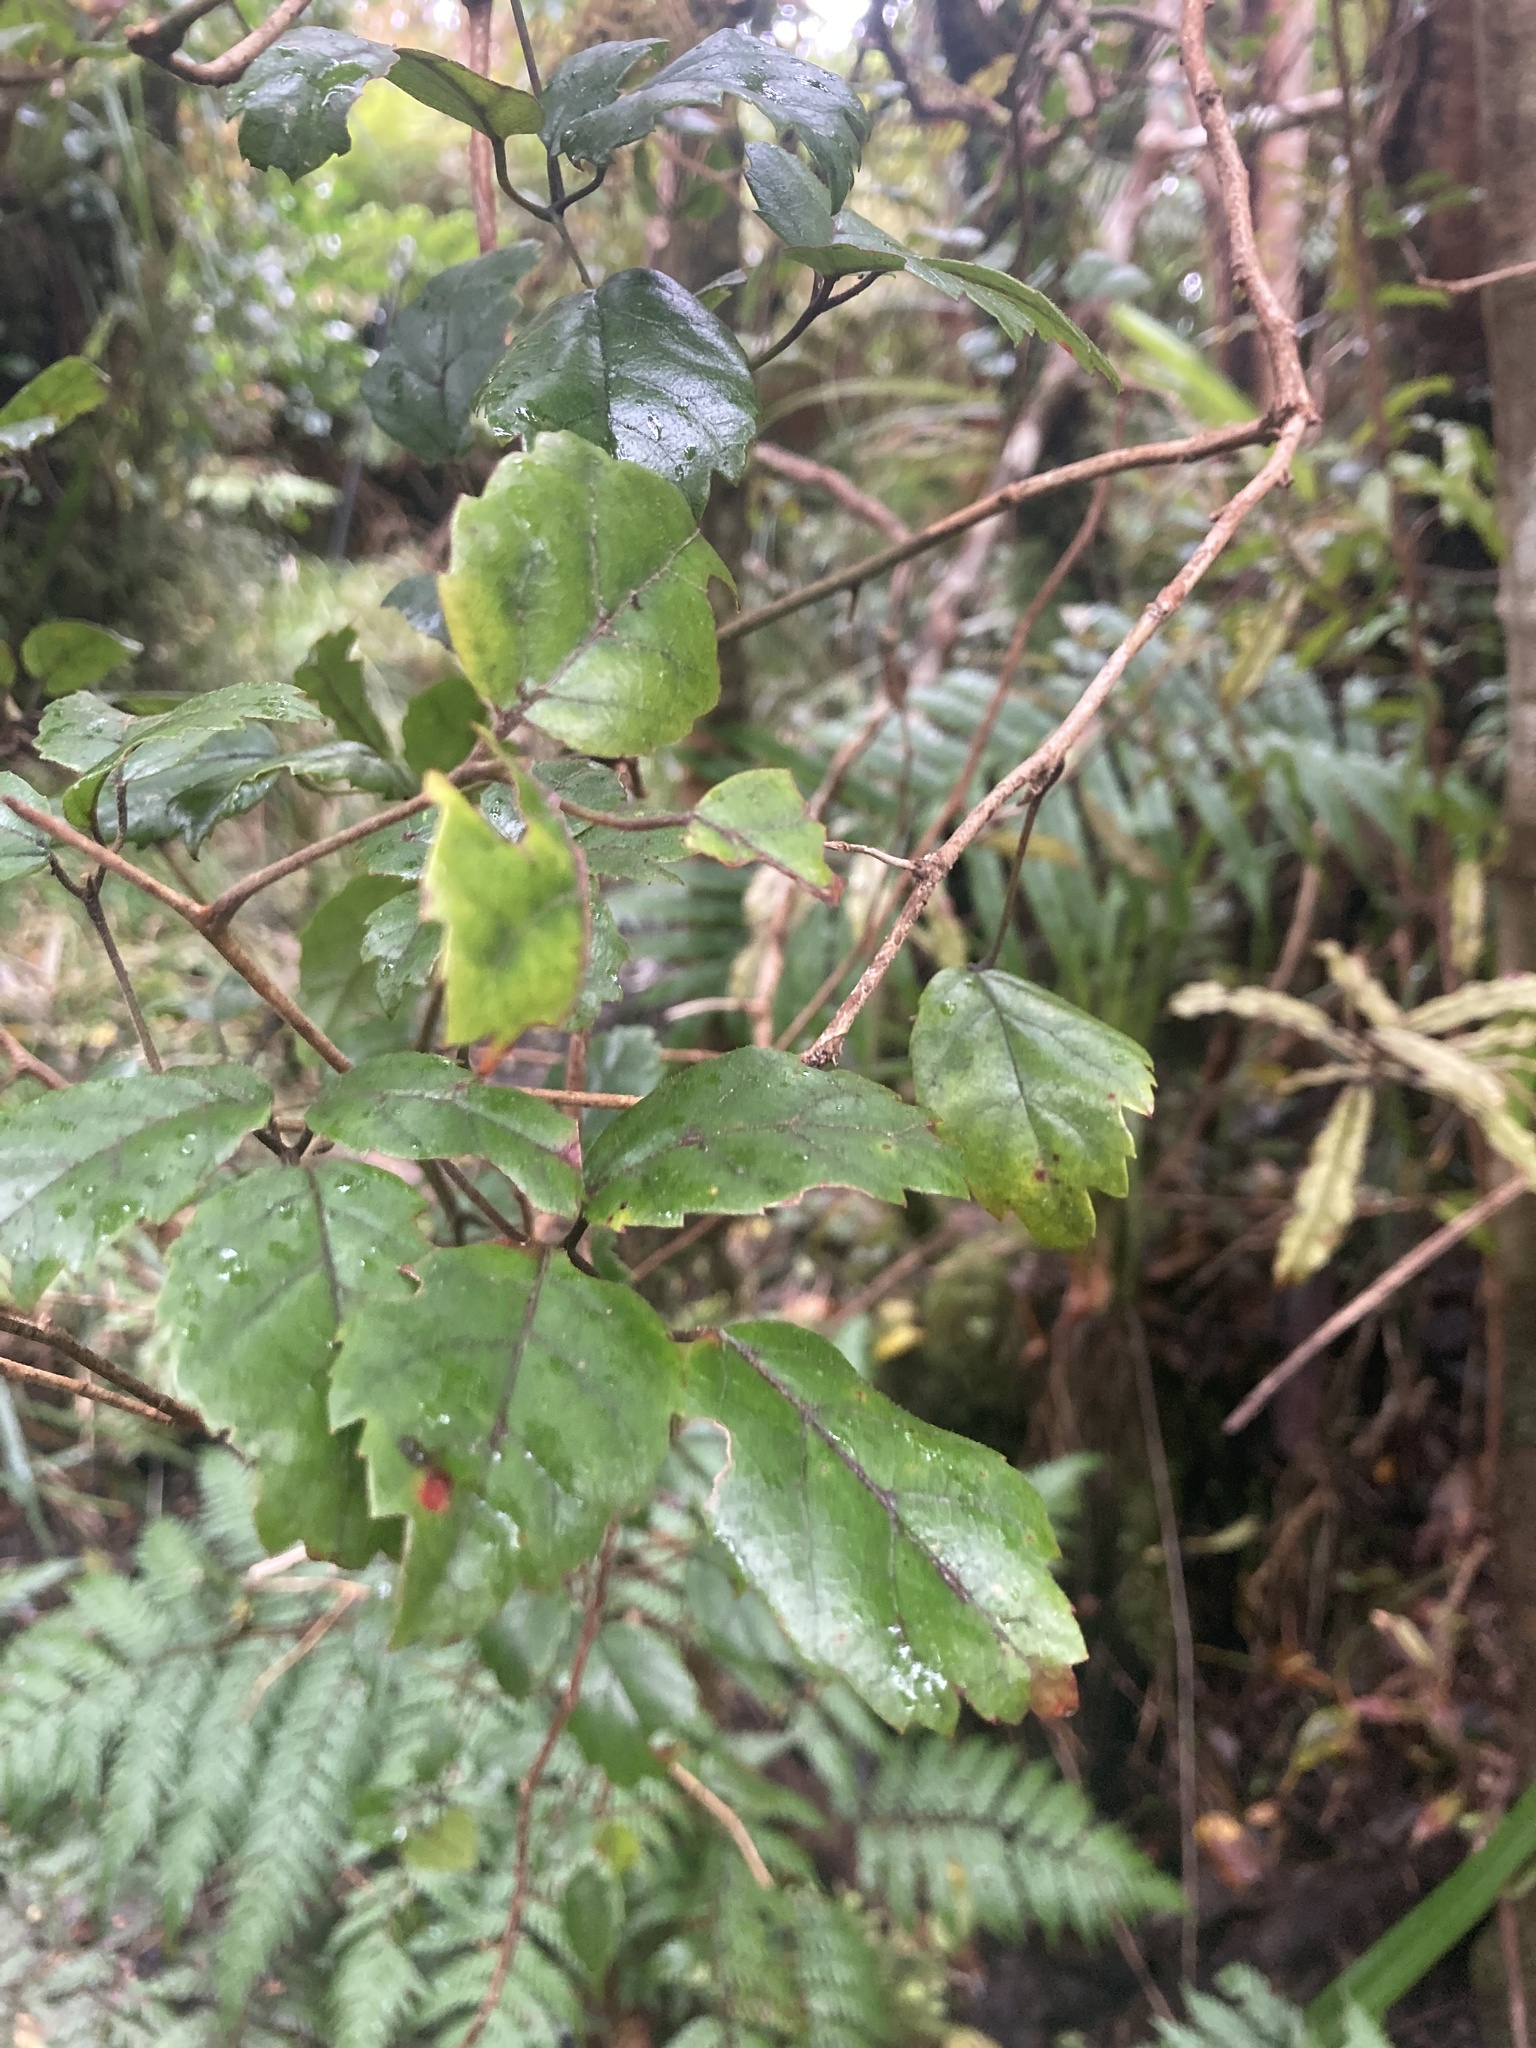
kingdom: Plantae
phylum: Tracheophyta
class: Magnoliopsida
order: Rosales
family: Rosaceae
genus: Rubus
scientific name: Rubus australis
